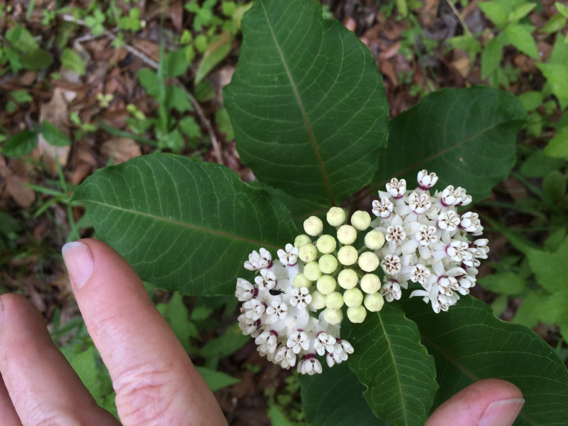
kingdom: Plantae
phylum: Tracheophyta
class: Magnoliopsida
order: Gentianales
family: Apocynaceae
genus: Asclepias
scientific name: Asclepias variegata
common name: Variegated milkweed
